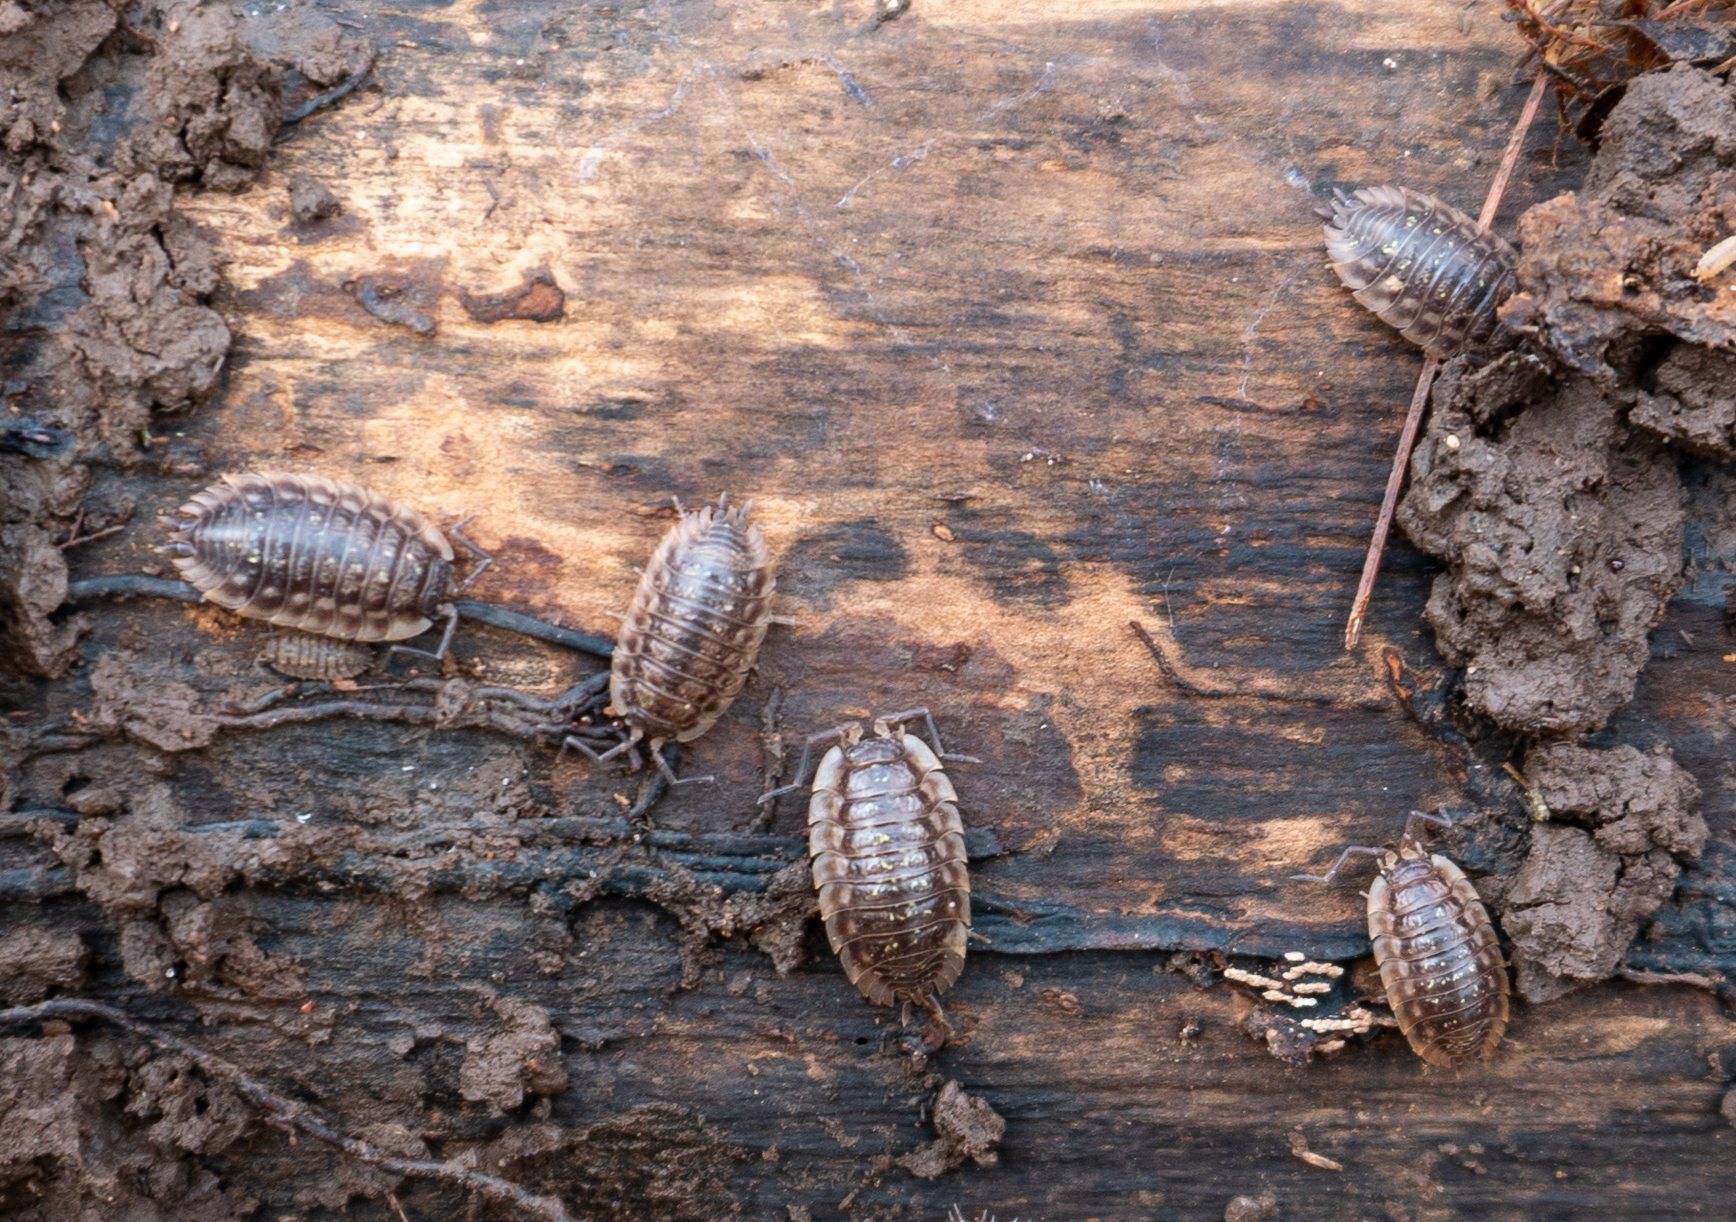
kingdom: Animalia
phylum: Arthropoda
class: Malacostraca
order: Isopoda
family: Oniscidae
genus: Oniscus
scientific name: Oniscus asellus
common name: Common shiny woodlouse
